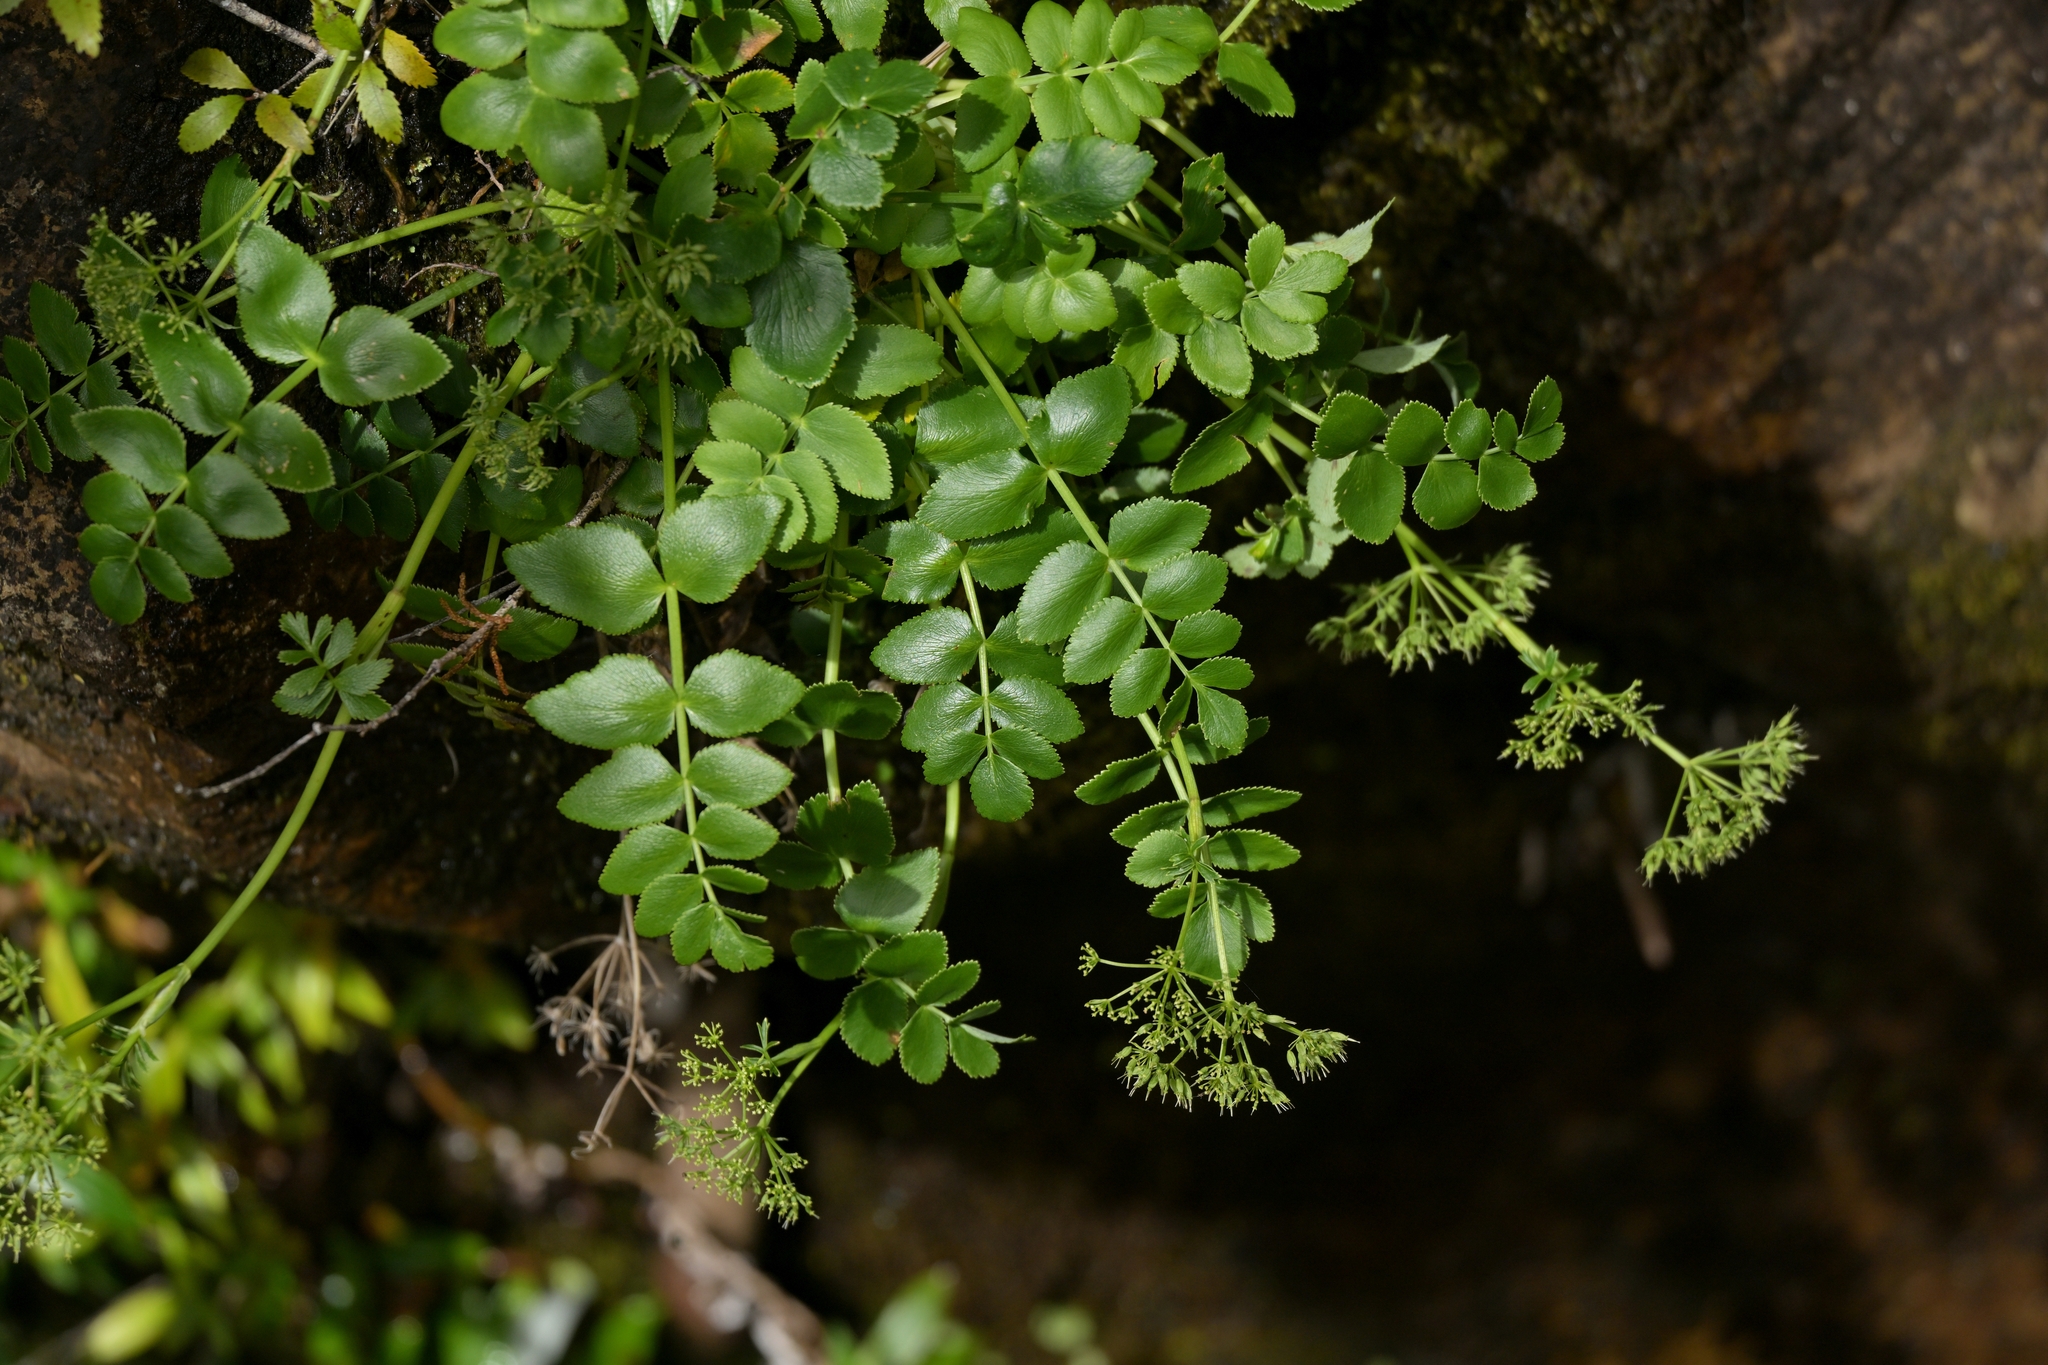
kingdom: Plantae
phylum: Tracheophyta
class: Magnoliopsida
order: Apiales
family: Apiaceae
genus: Gingidia
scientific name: Gingidia montana
